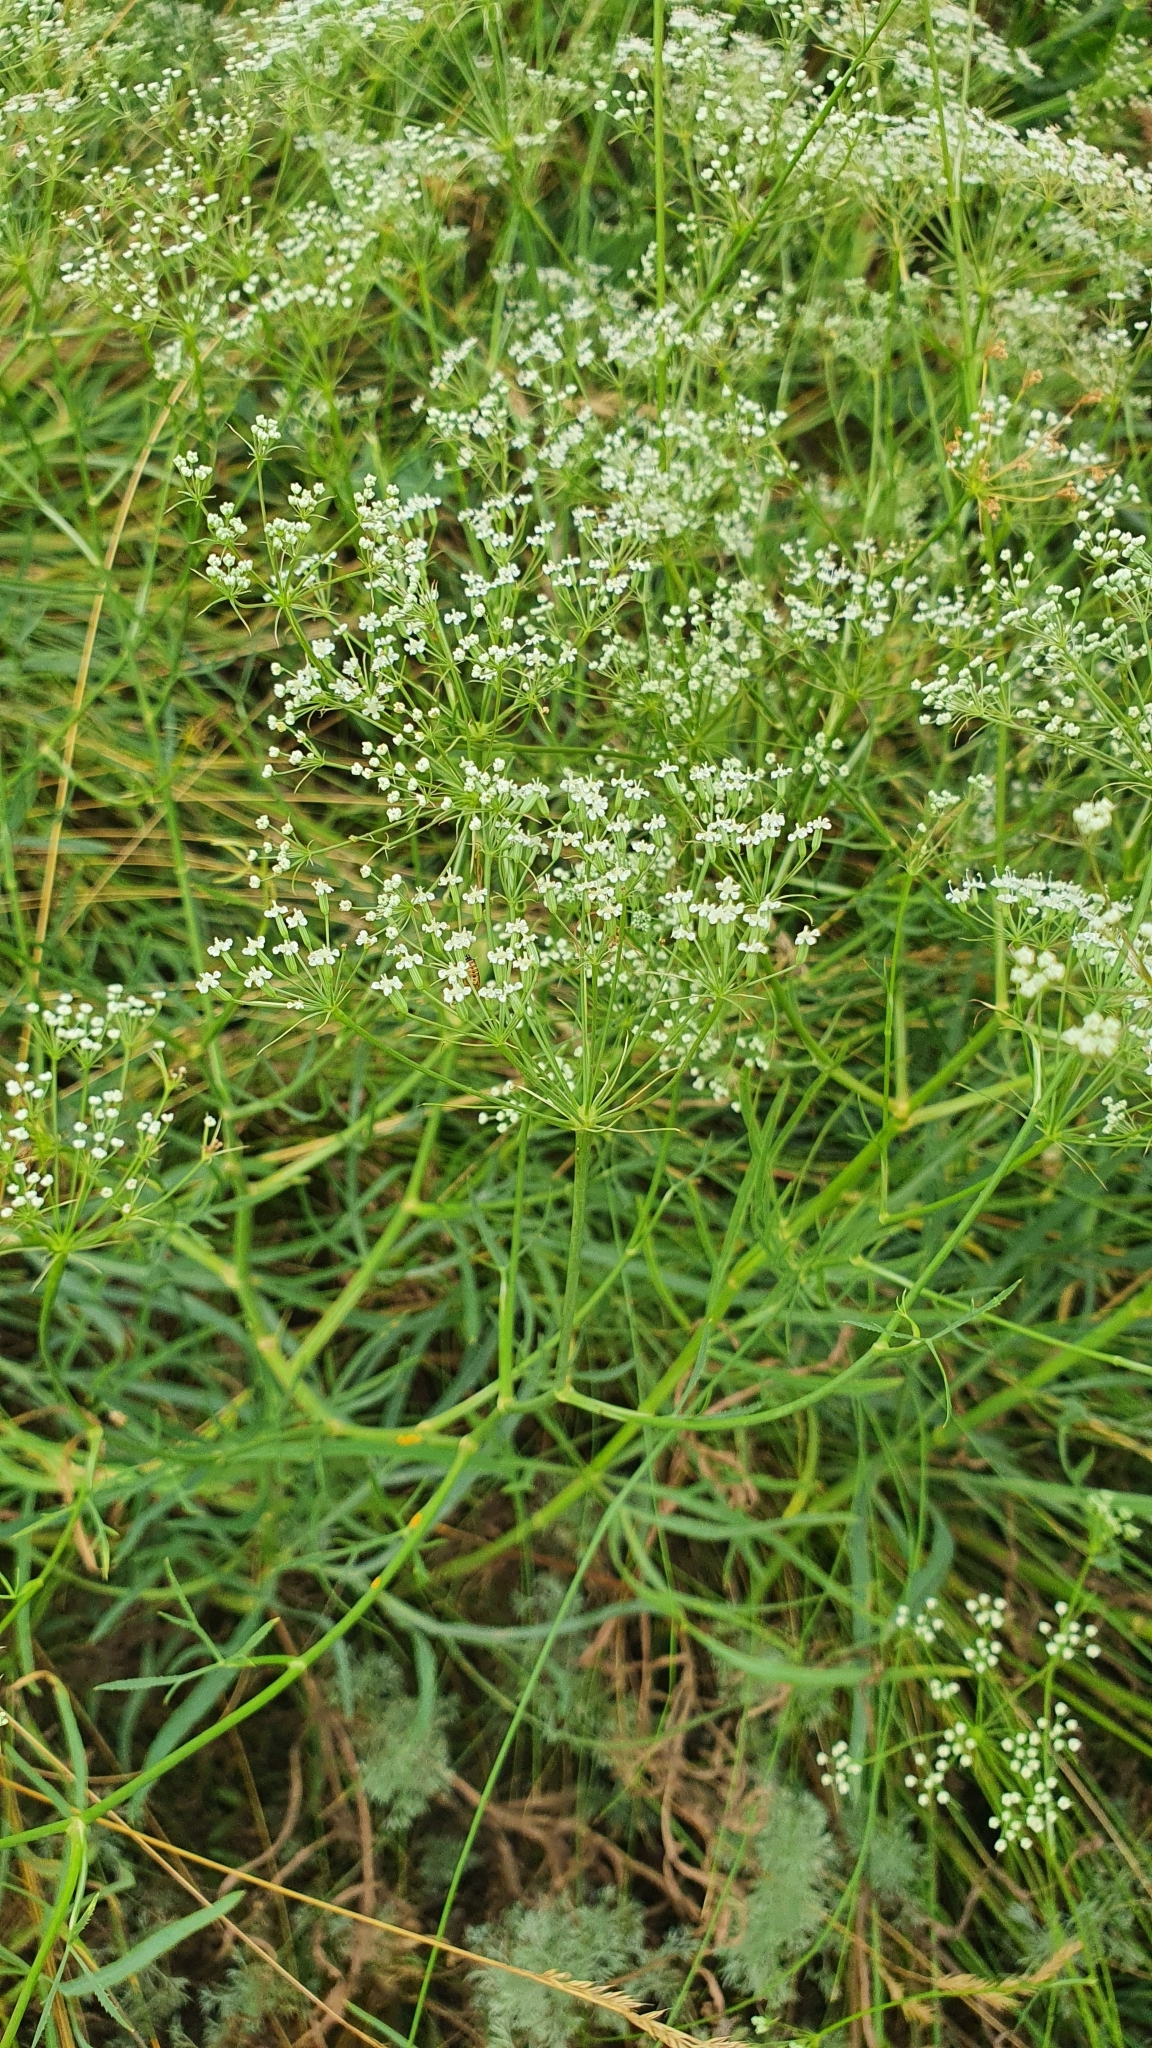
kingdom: Plantae
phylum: Tracheophyta
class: Magnoliopsida
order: Apiales
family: Apiaceae
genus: Falcaria
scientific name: Falcaria vulgaris
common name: Longleaf
